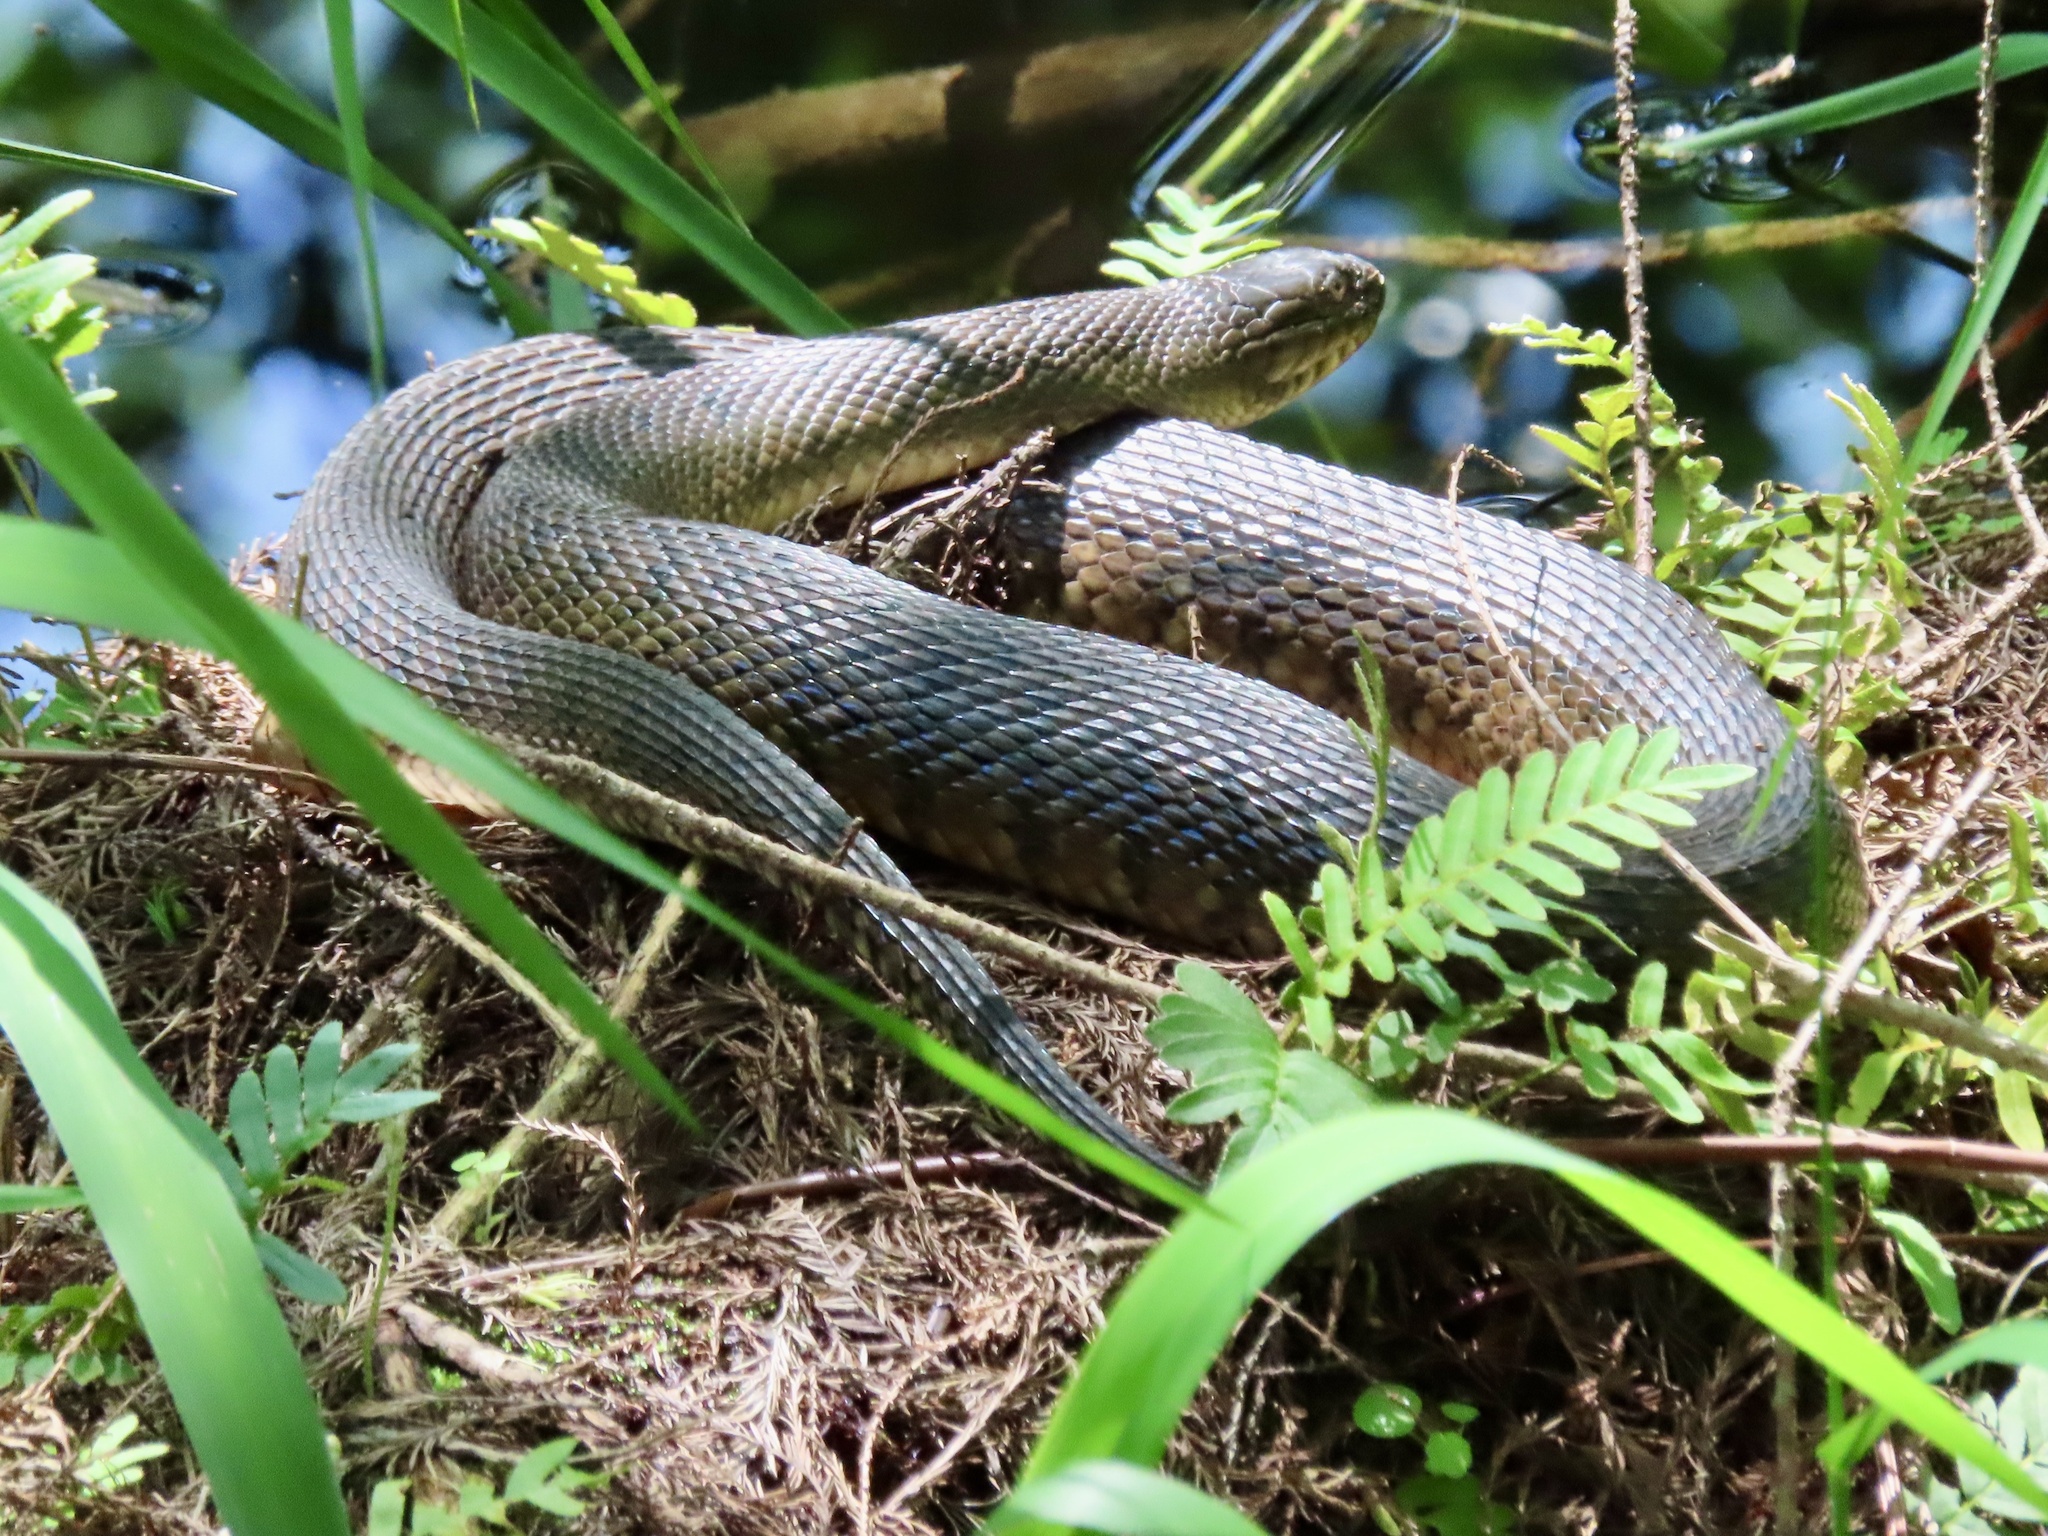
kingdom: Animalia
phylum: Chordata
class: Squamata
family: Colubridae
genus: Nerodia
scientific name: Nerodia floridana
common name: Florida green watersnake
